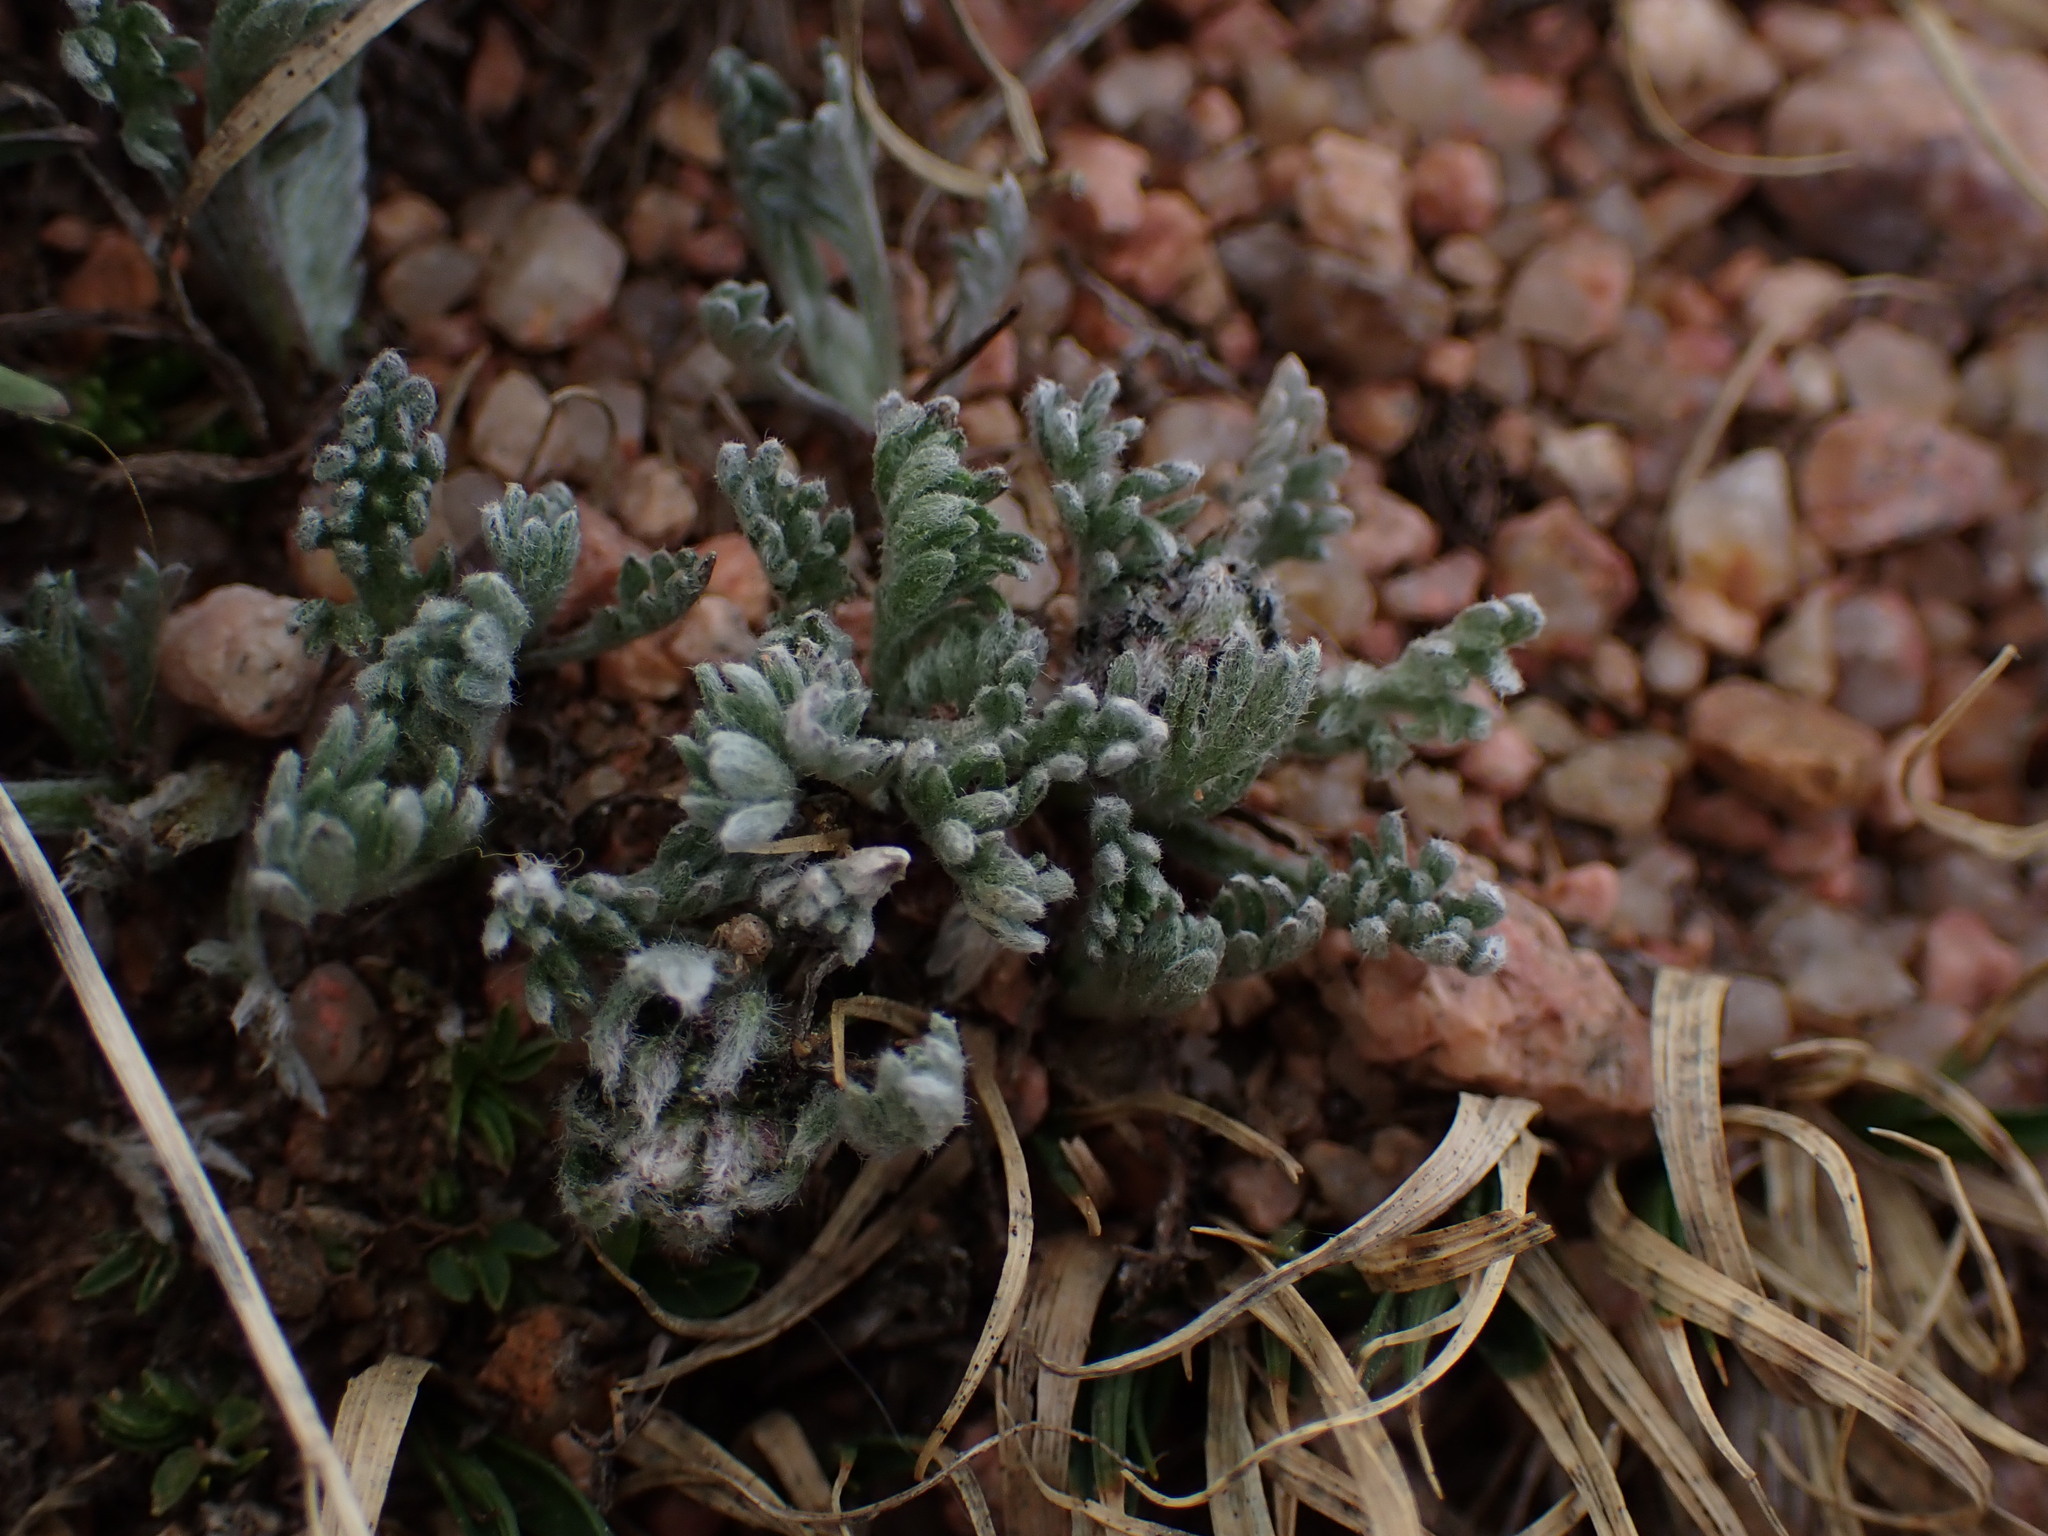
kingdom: Plantae
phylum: Tracheophyta
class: Magnoliopsida
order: Asterales
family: Asteraceae
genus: Artemisia
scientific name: Artemisia scopulorum
